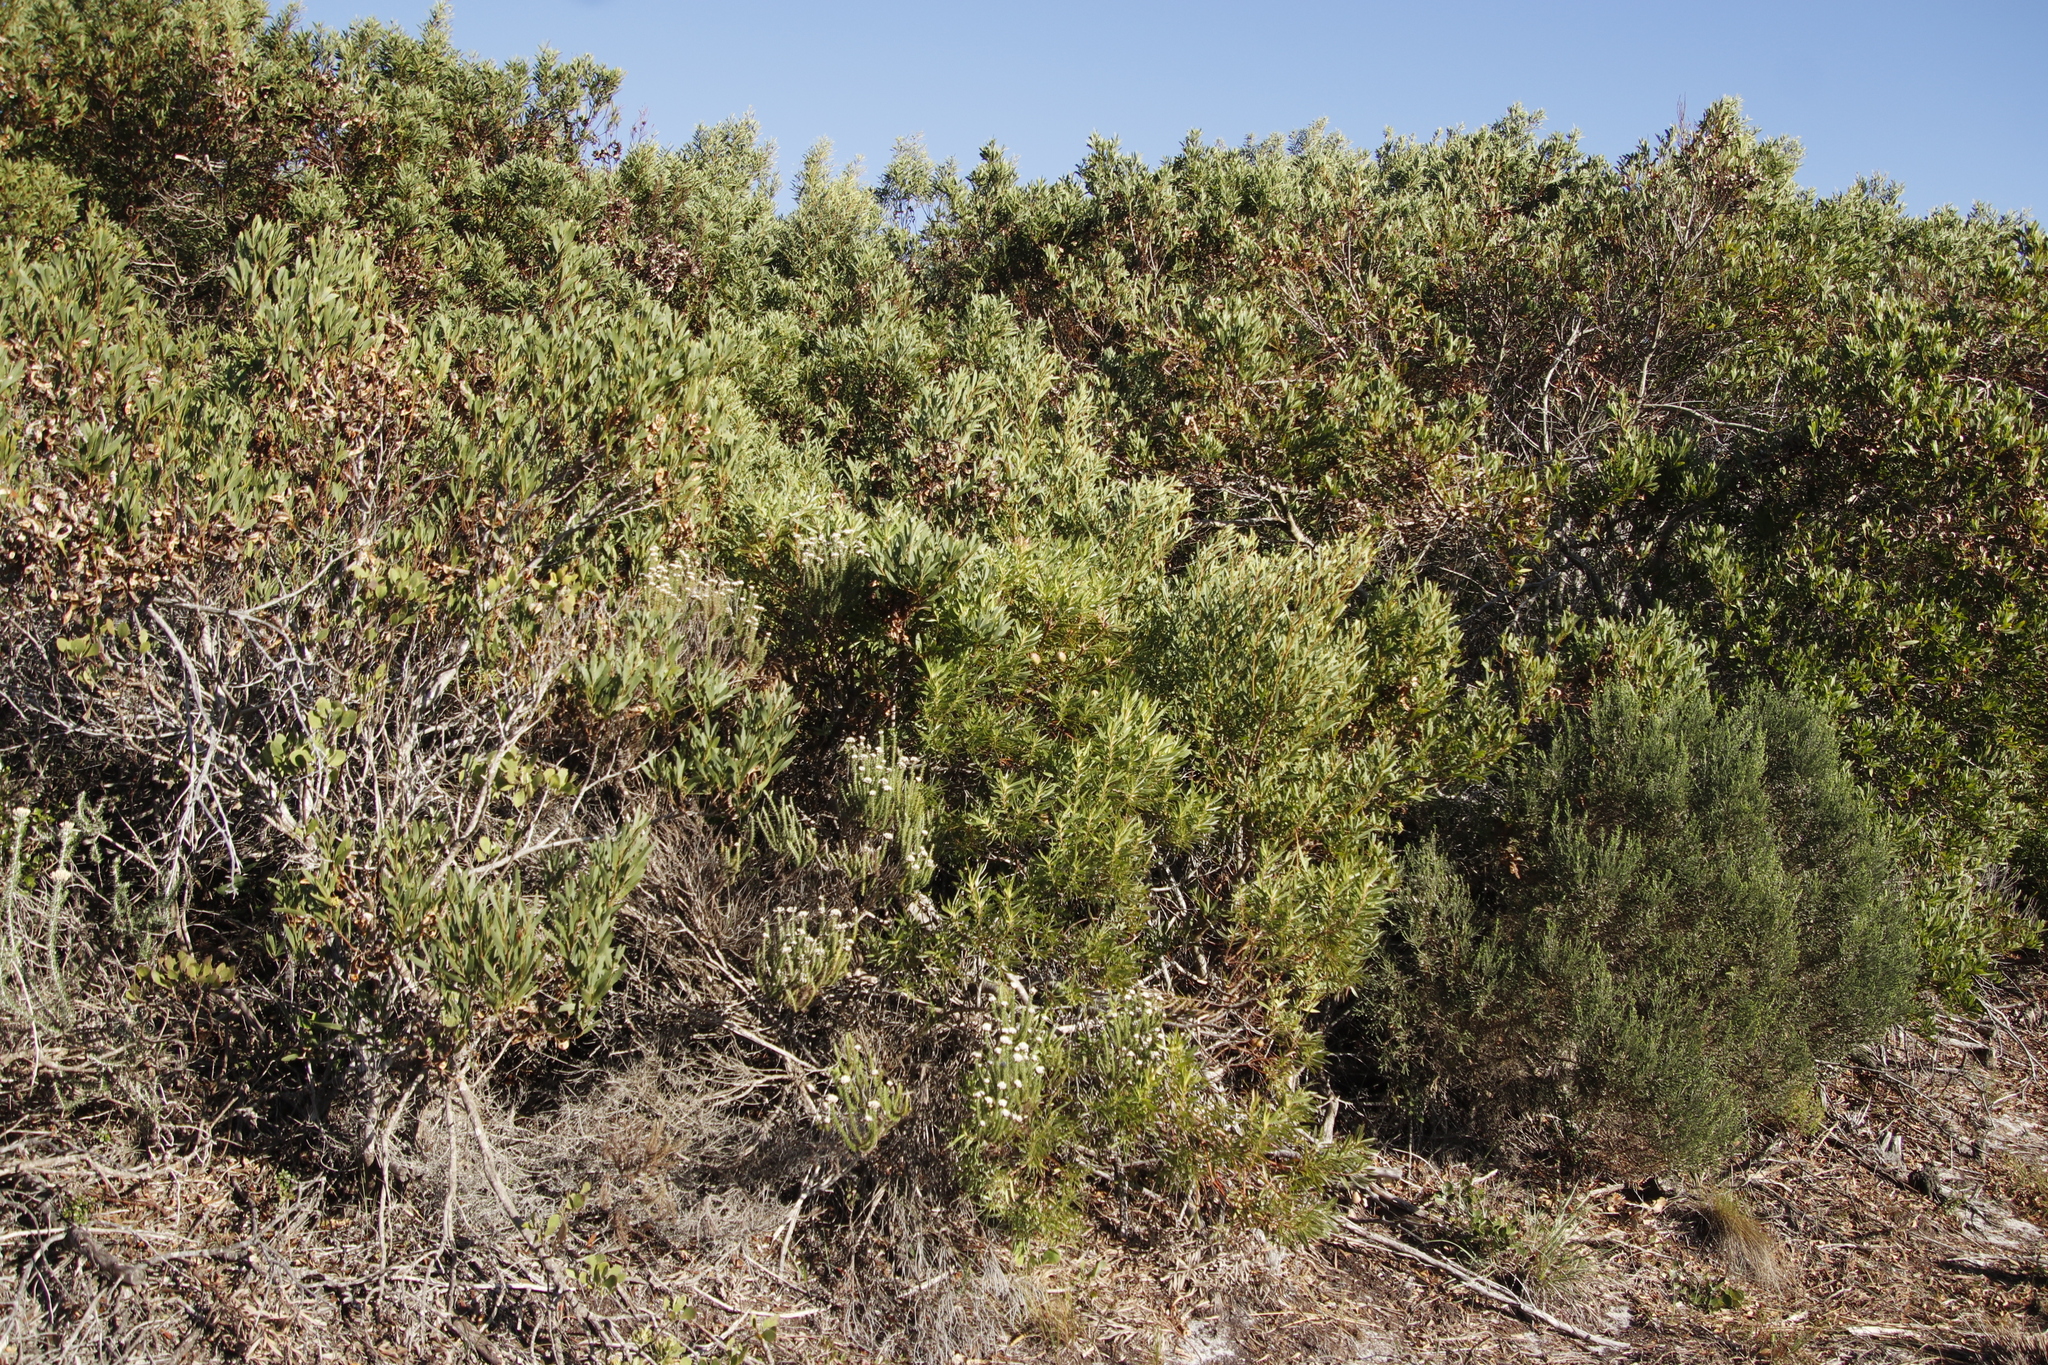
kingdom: Plantae
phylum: Tracheophyta
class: Magnoliopsida
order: Proteales
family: Proteaceae
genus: Leucadendron
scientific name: Leucadendron coniferum
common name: Dune conebush
